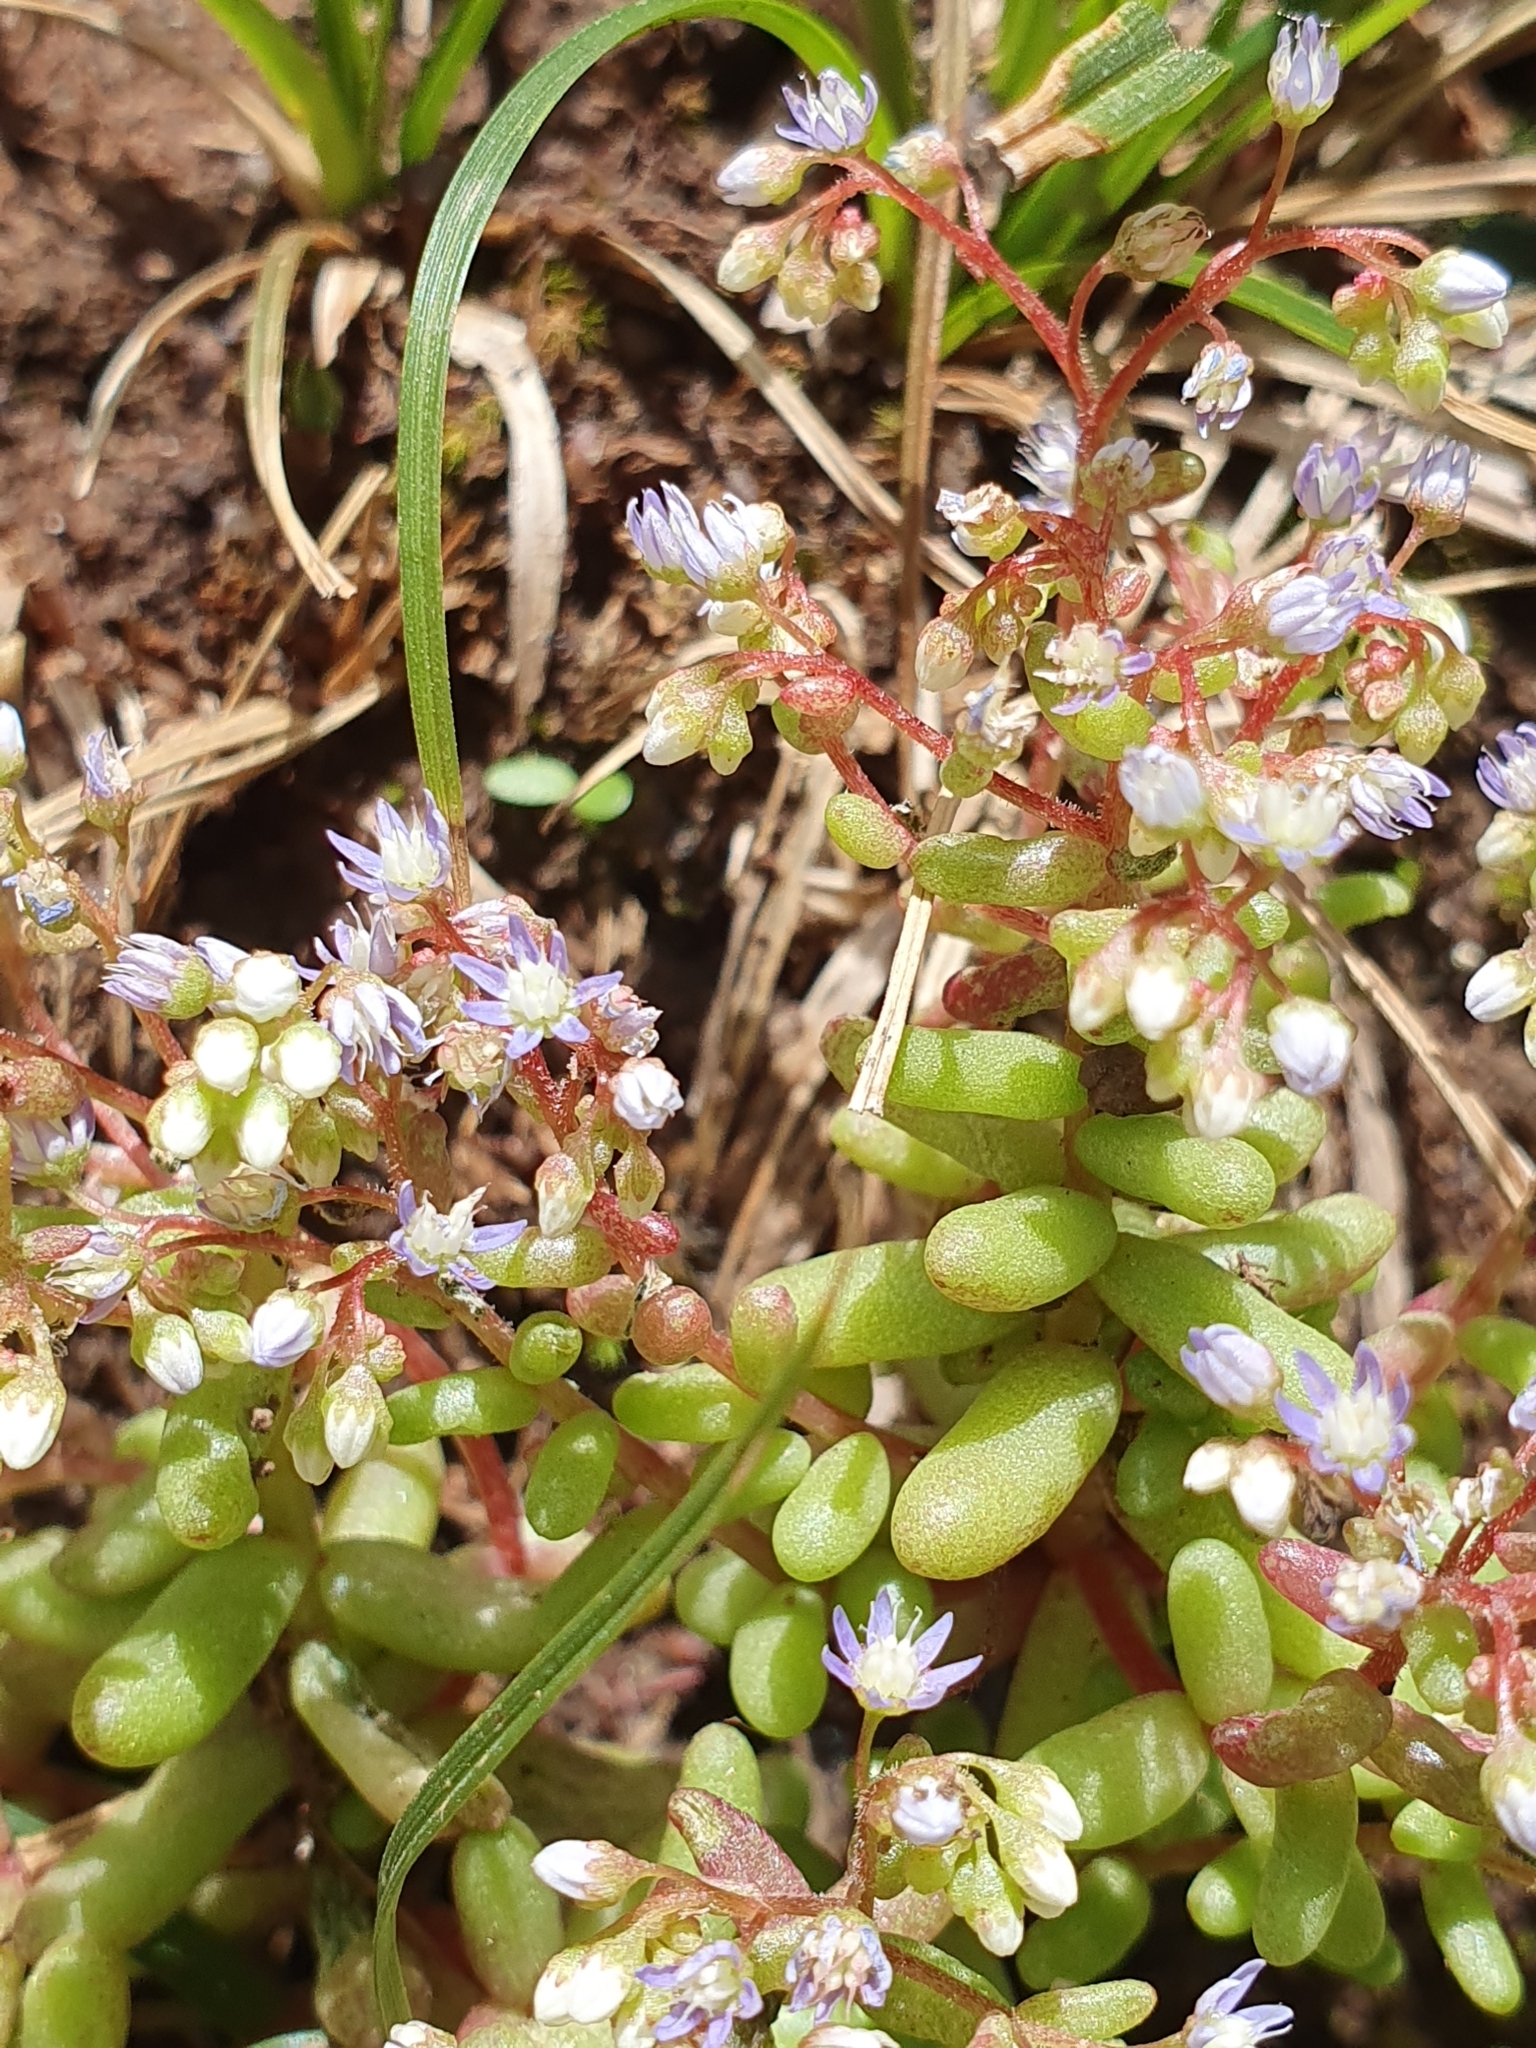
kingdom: Plantae
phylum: Tracheophyta
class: Magnoliopsida
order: Saxifragales
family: Crassulaceae
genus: Sedum
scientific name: Sedum caeruleum
